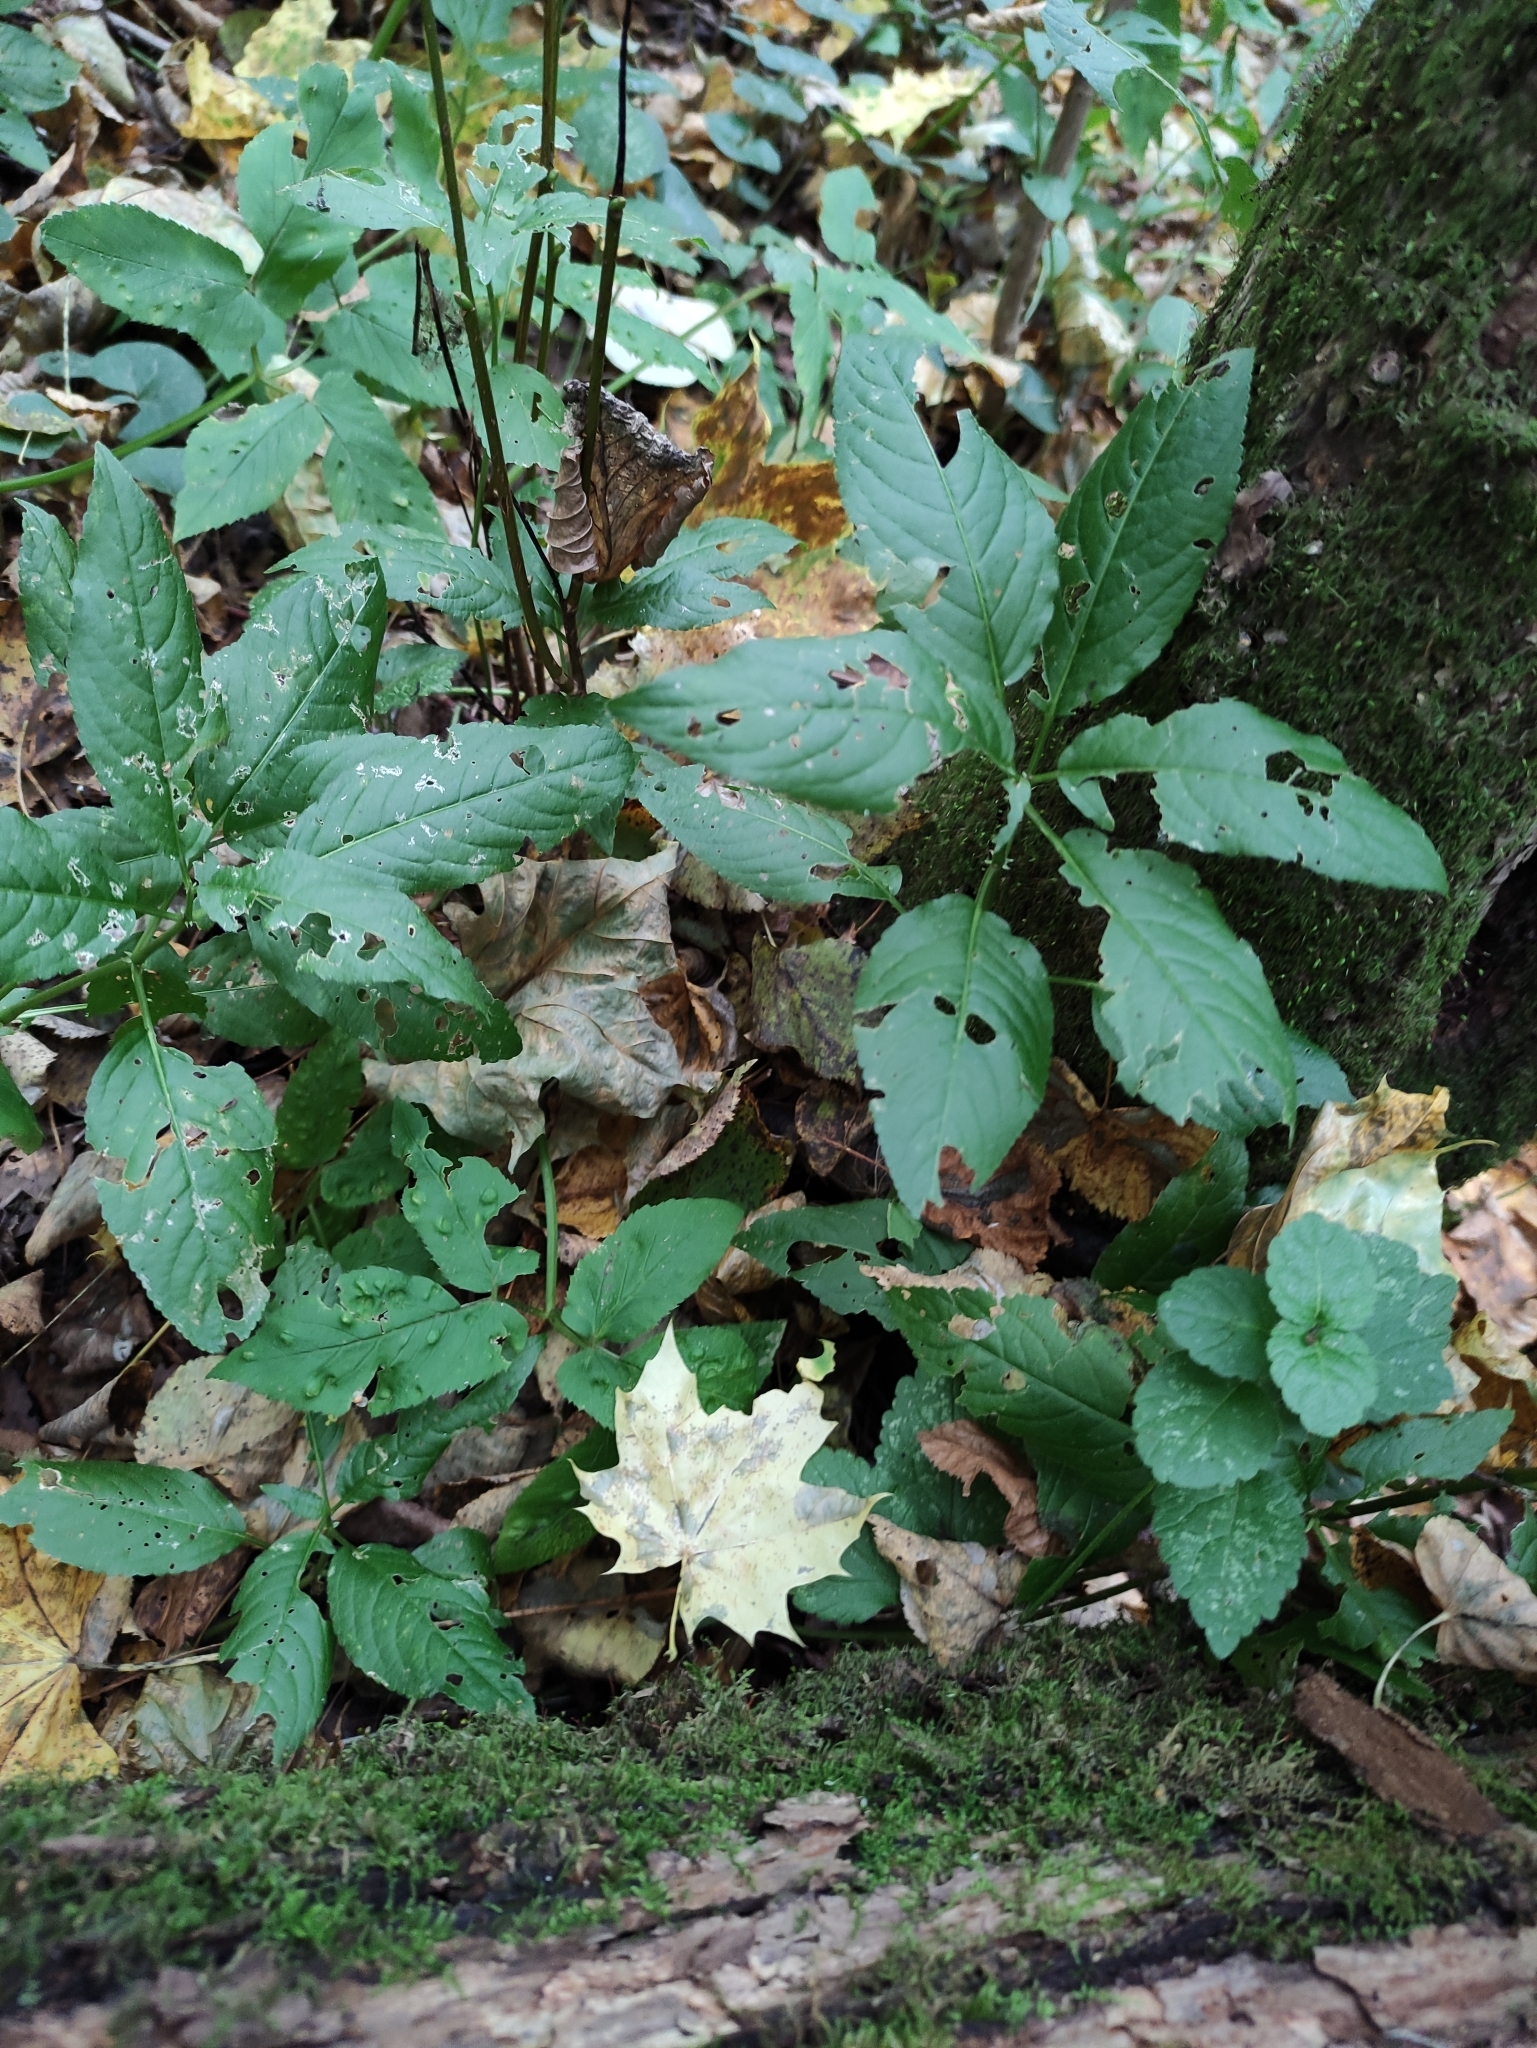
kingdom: Plantae
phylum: Tracheophyta
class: Magnoliopsida
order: Malpighiales
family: Euphorbiaceae
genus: Mercurialis
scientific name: Mercurialis perennis
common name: Dog mercury
